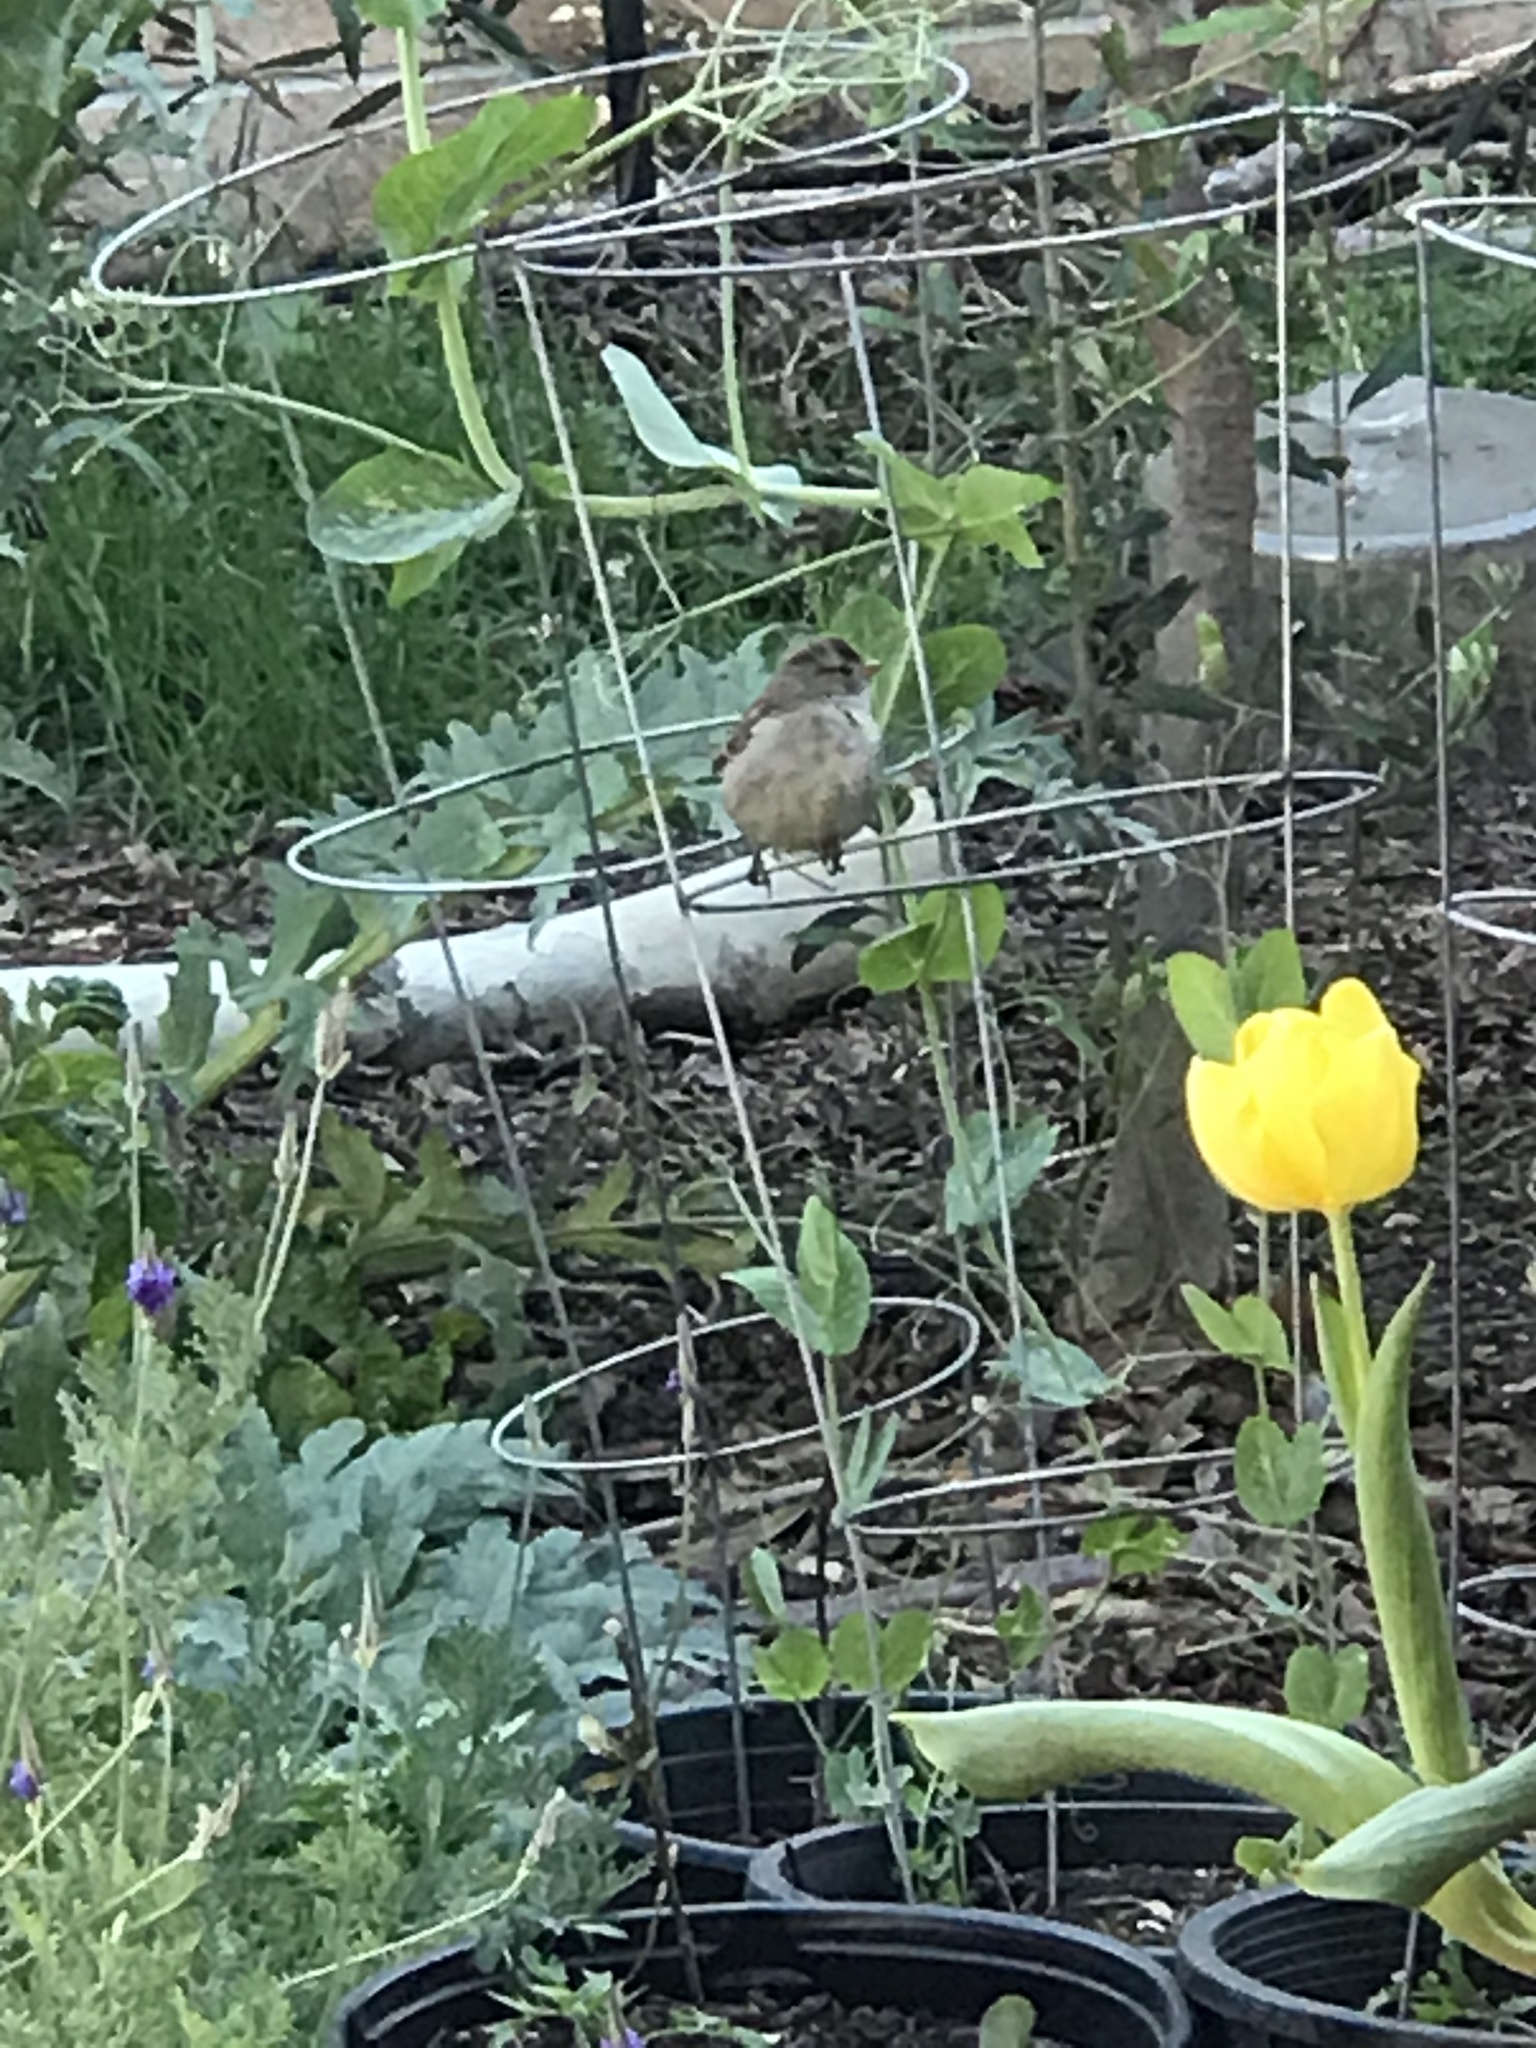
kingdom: Animalia
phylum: Chordata
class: Aves
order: Passeriformes
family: Passerellidae
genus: Zonotrichia
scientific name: Zonotrichia leucophrys
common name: White-crowned sparrow
